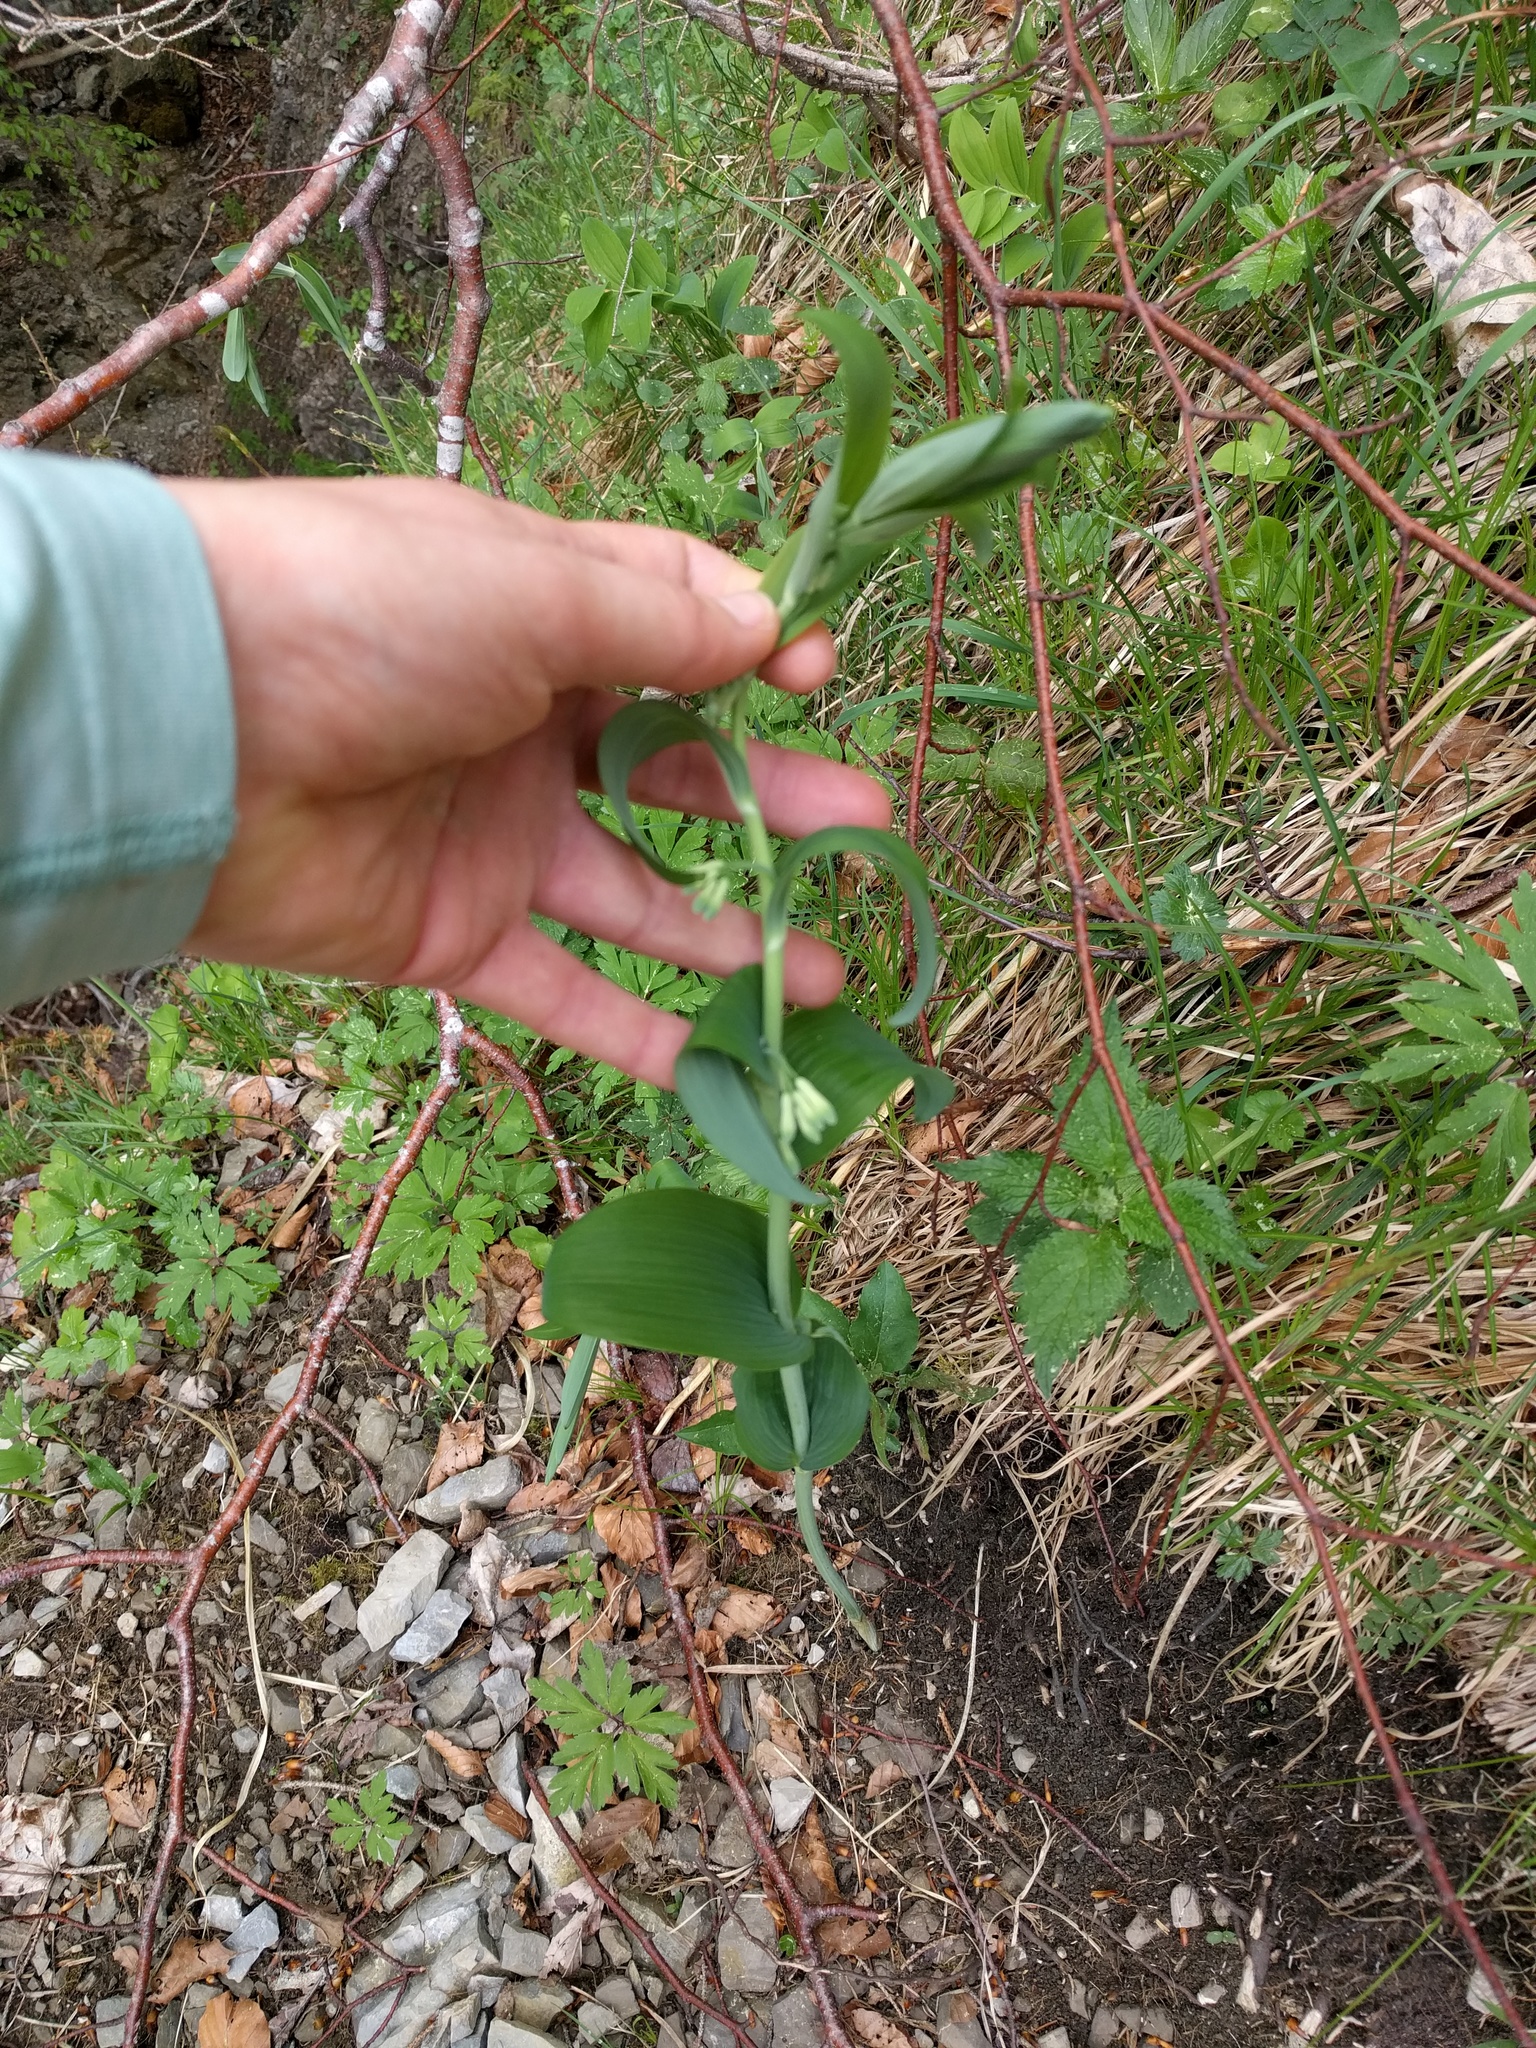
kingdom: Plantae
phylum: Tracheophyta
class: Liliopsida
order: Asparagales
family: Asparagaceae
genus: Polygonatum
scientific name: Polygonatum multiflorum
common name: Solomon's-seal
